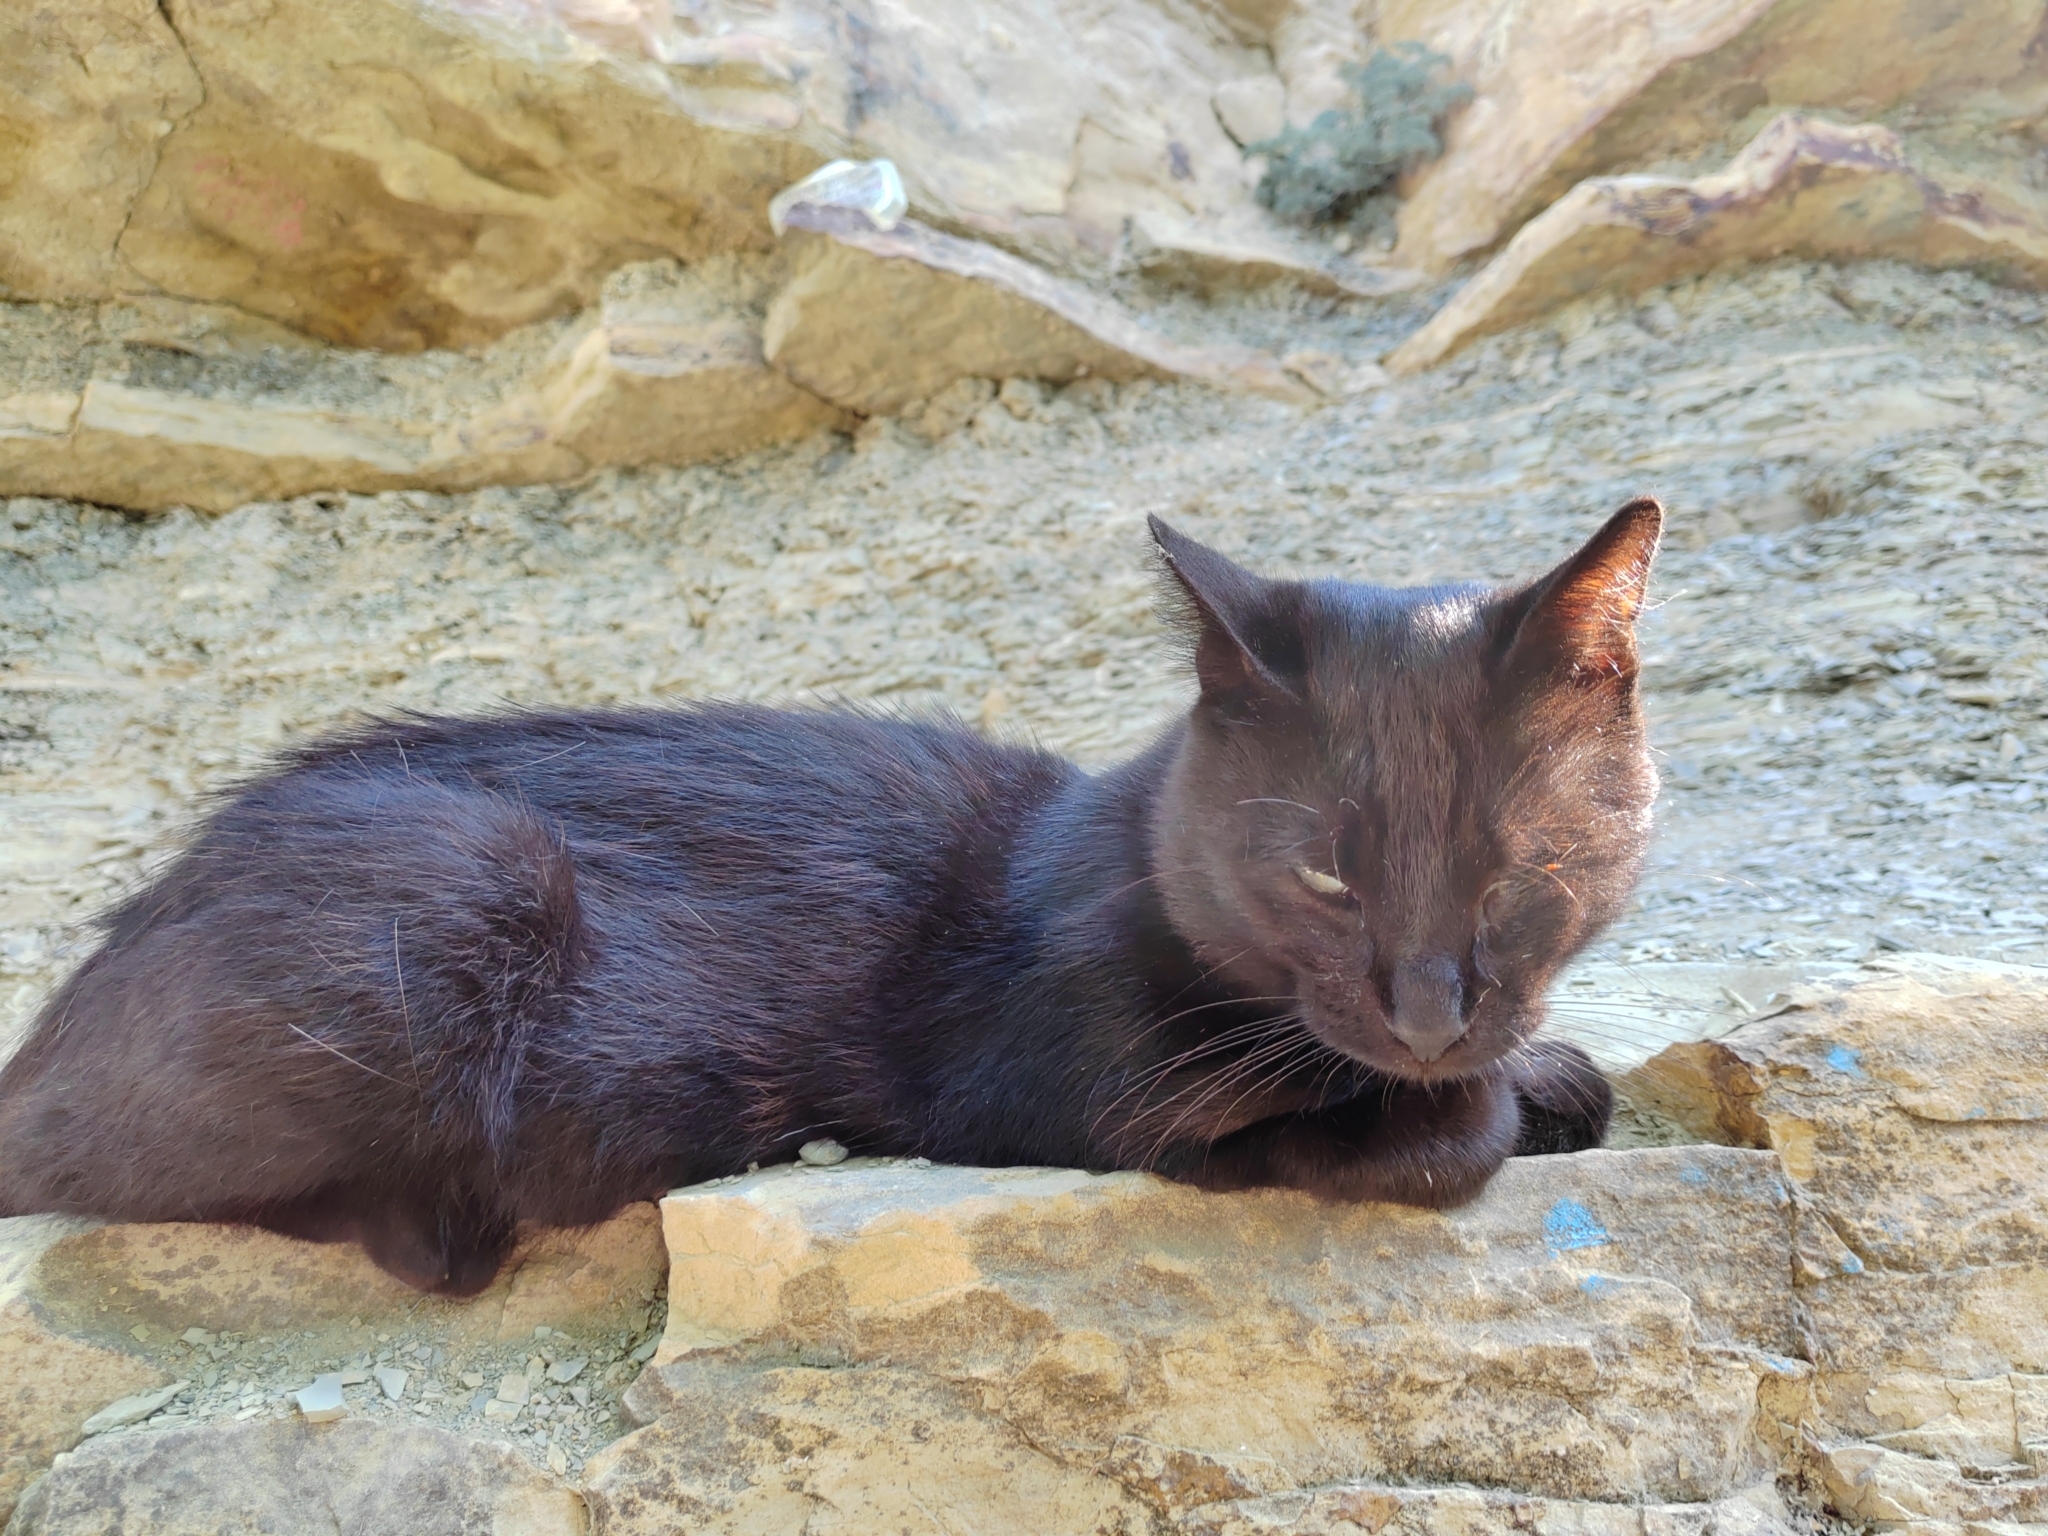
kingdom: Animalia
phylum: Chordata
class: Mammalia
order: Carnivora
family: Felidae
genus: Felis
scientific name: Felis catus
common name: Domestic cat
